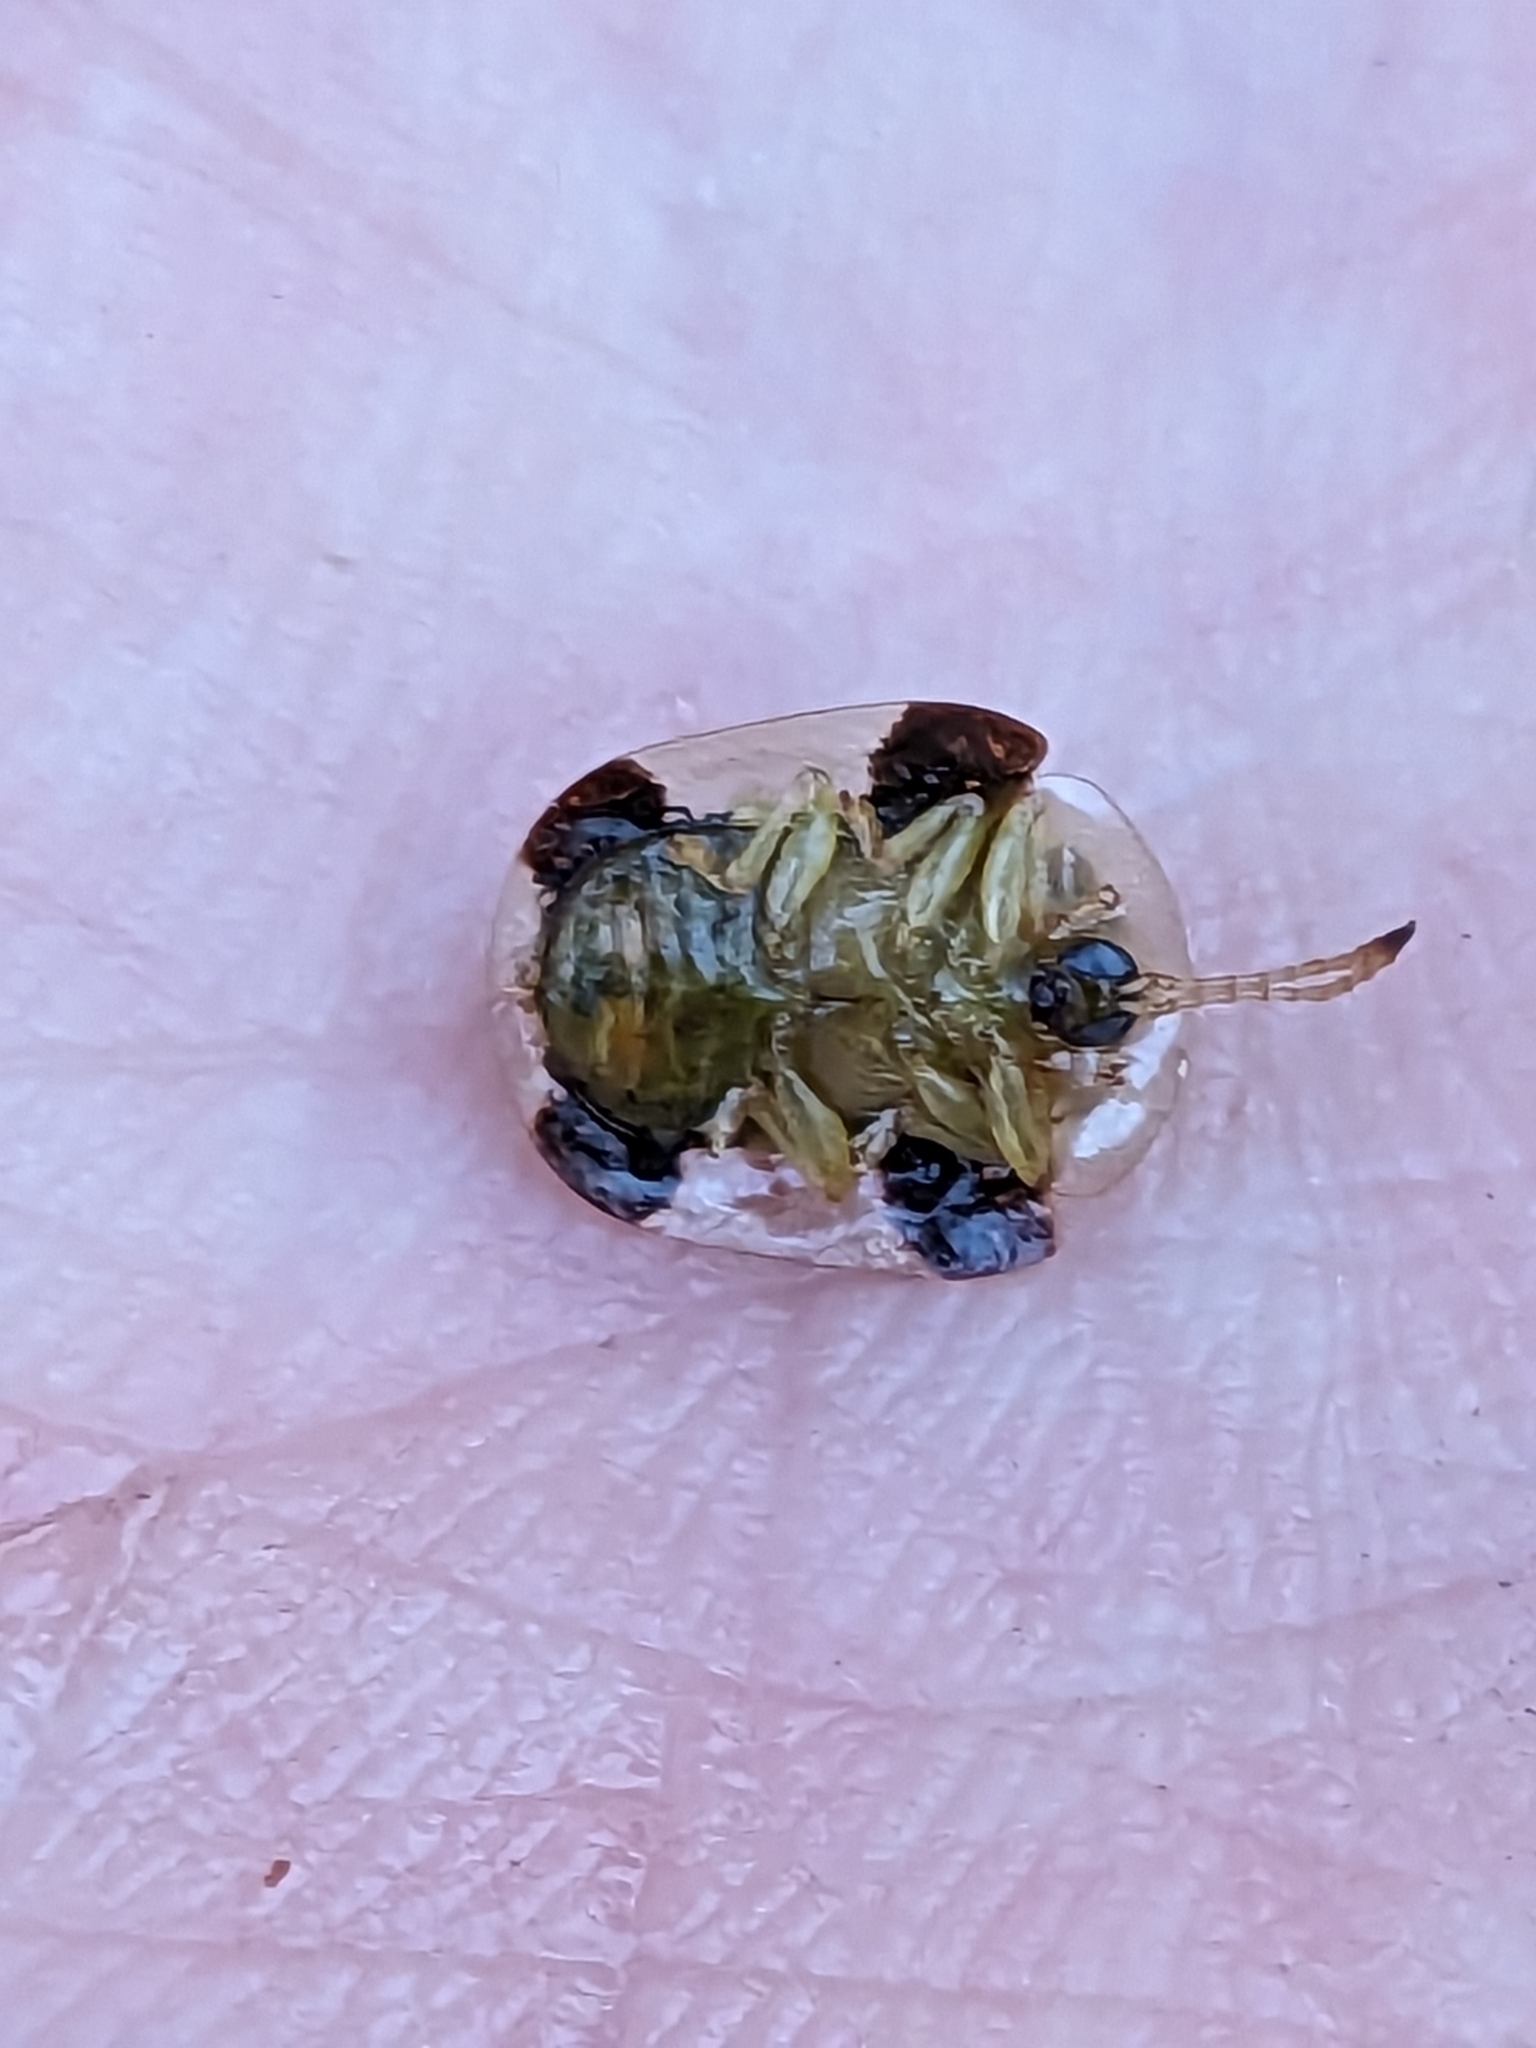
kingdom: Animalia
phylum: Arthropoda
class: Insecta
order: Coleoptera
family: Chrysomelidae
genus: Helocassis
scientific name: Helocassis clavata
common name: Clavate tortoise beetle
